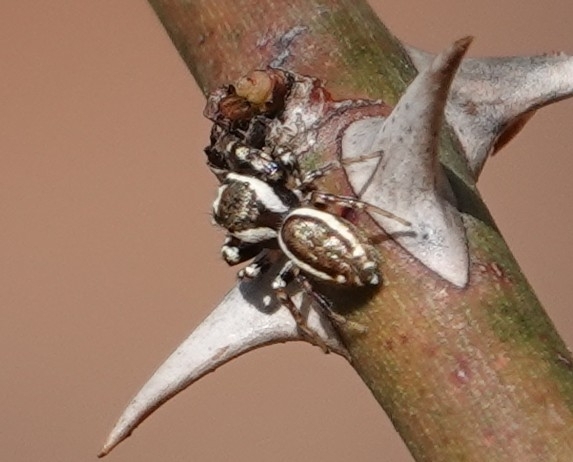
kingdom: Animalia
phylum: Arthropoda
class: Arachnida
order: Araneae
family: Salticidae
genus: Pelegrina
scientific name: Pelegrina proterva
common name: Common white-cheeked jumping spider
